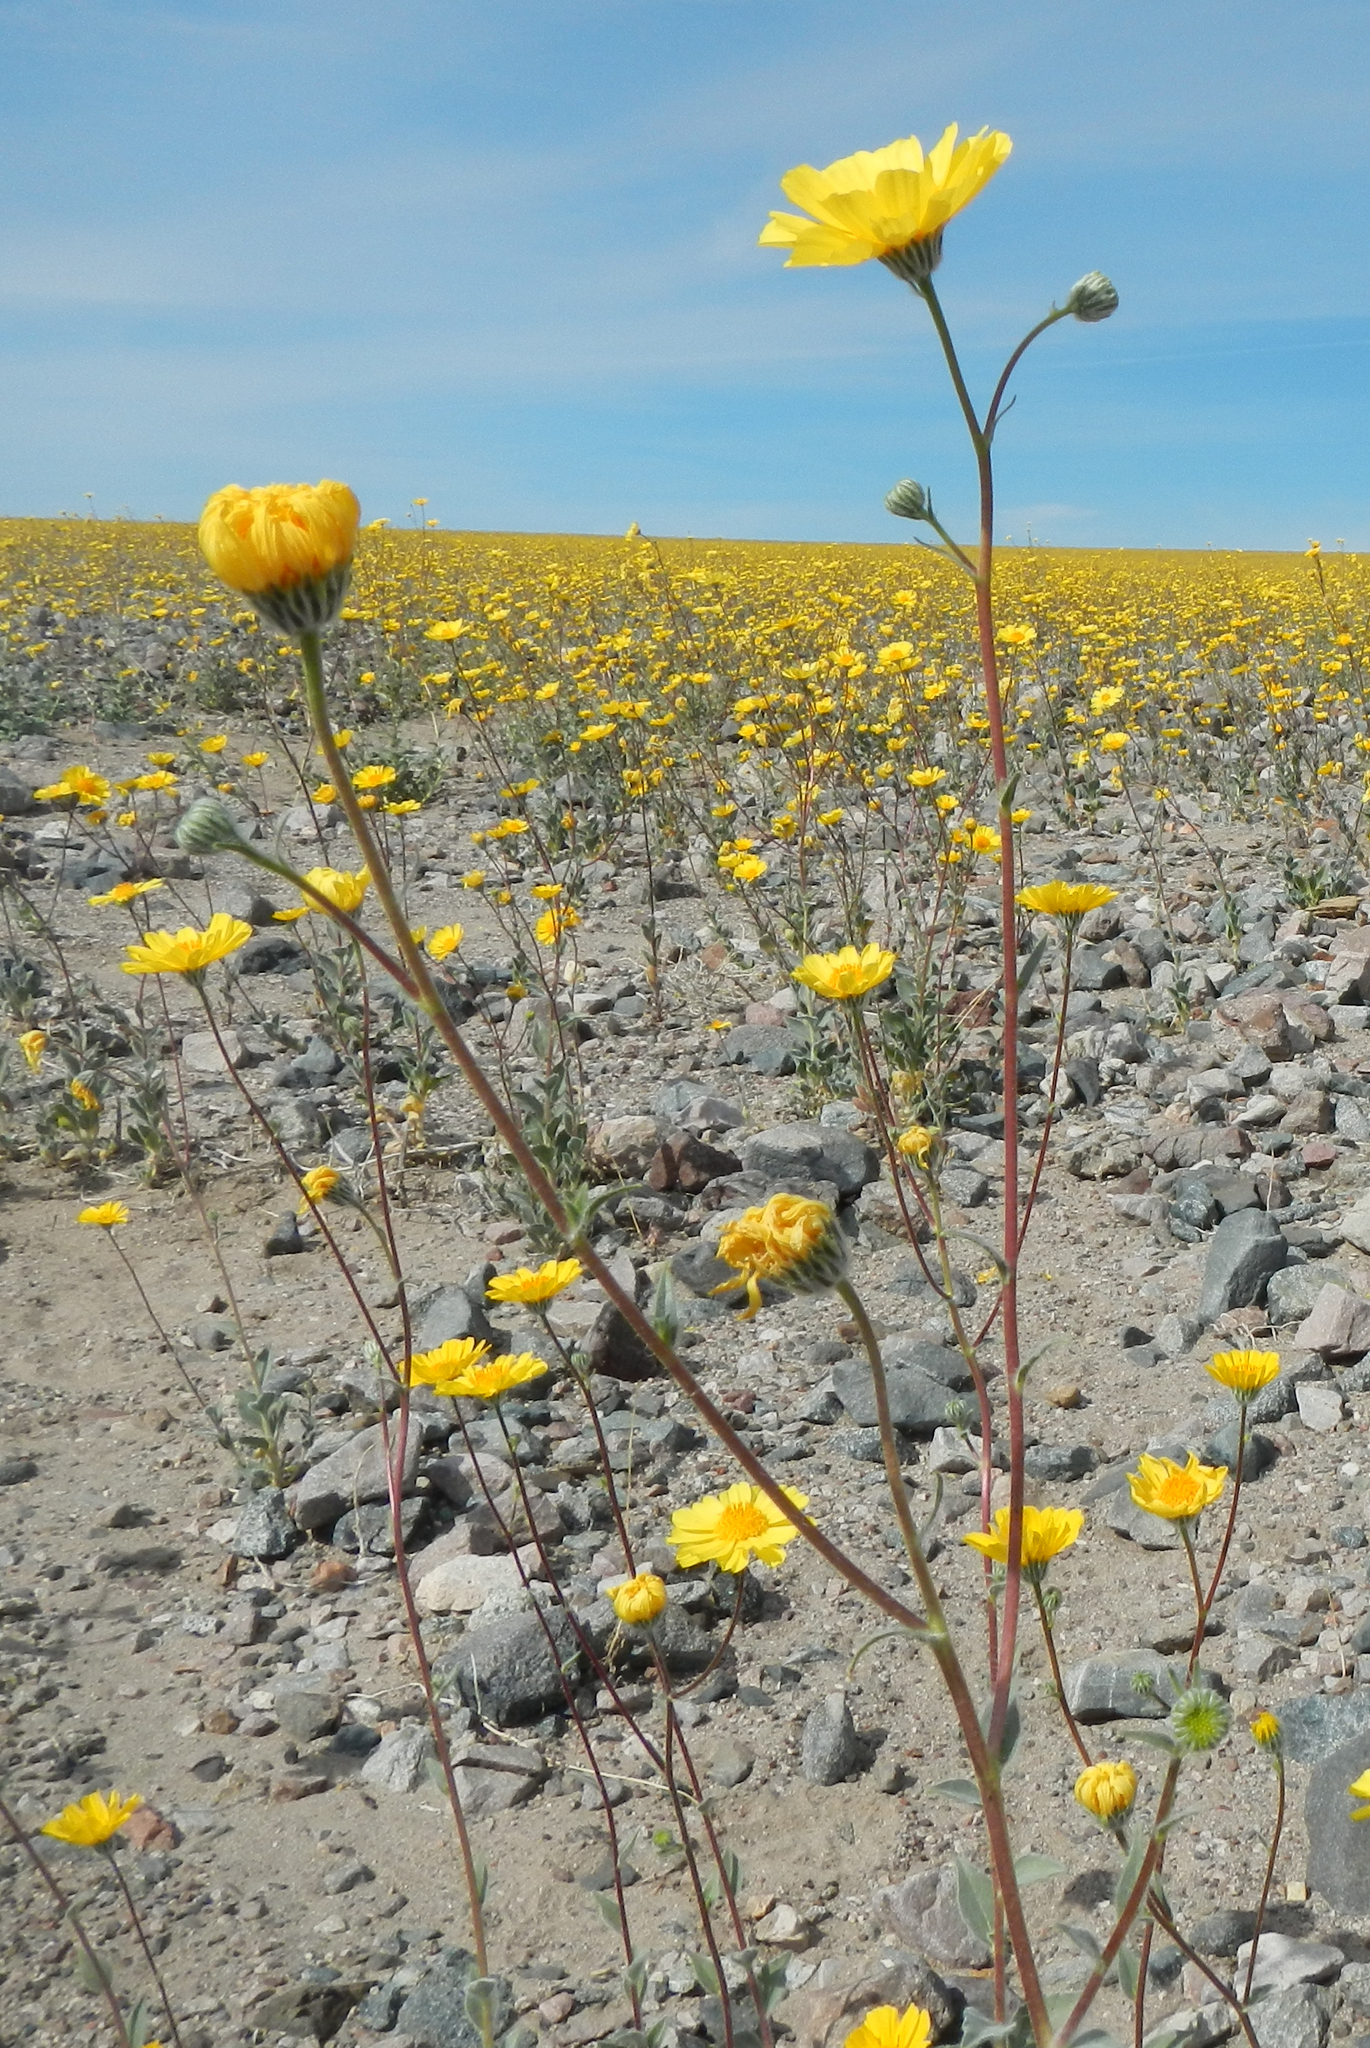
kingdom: Plantae
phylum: Tracheophyta
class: Magnoliopsida
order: Asterales
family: Asteraceae
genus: Geraea
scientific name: Geraea canescens
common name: Desert-gold
